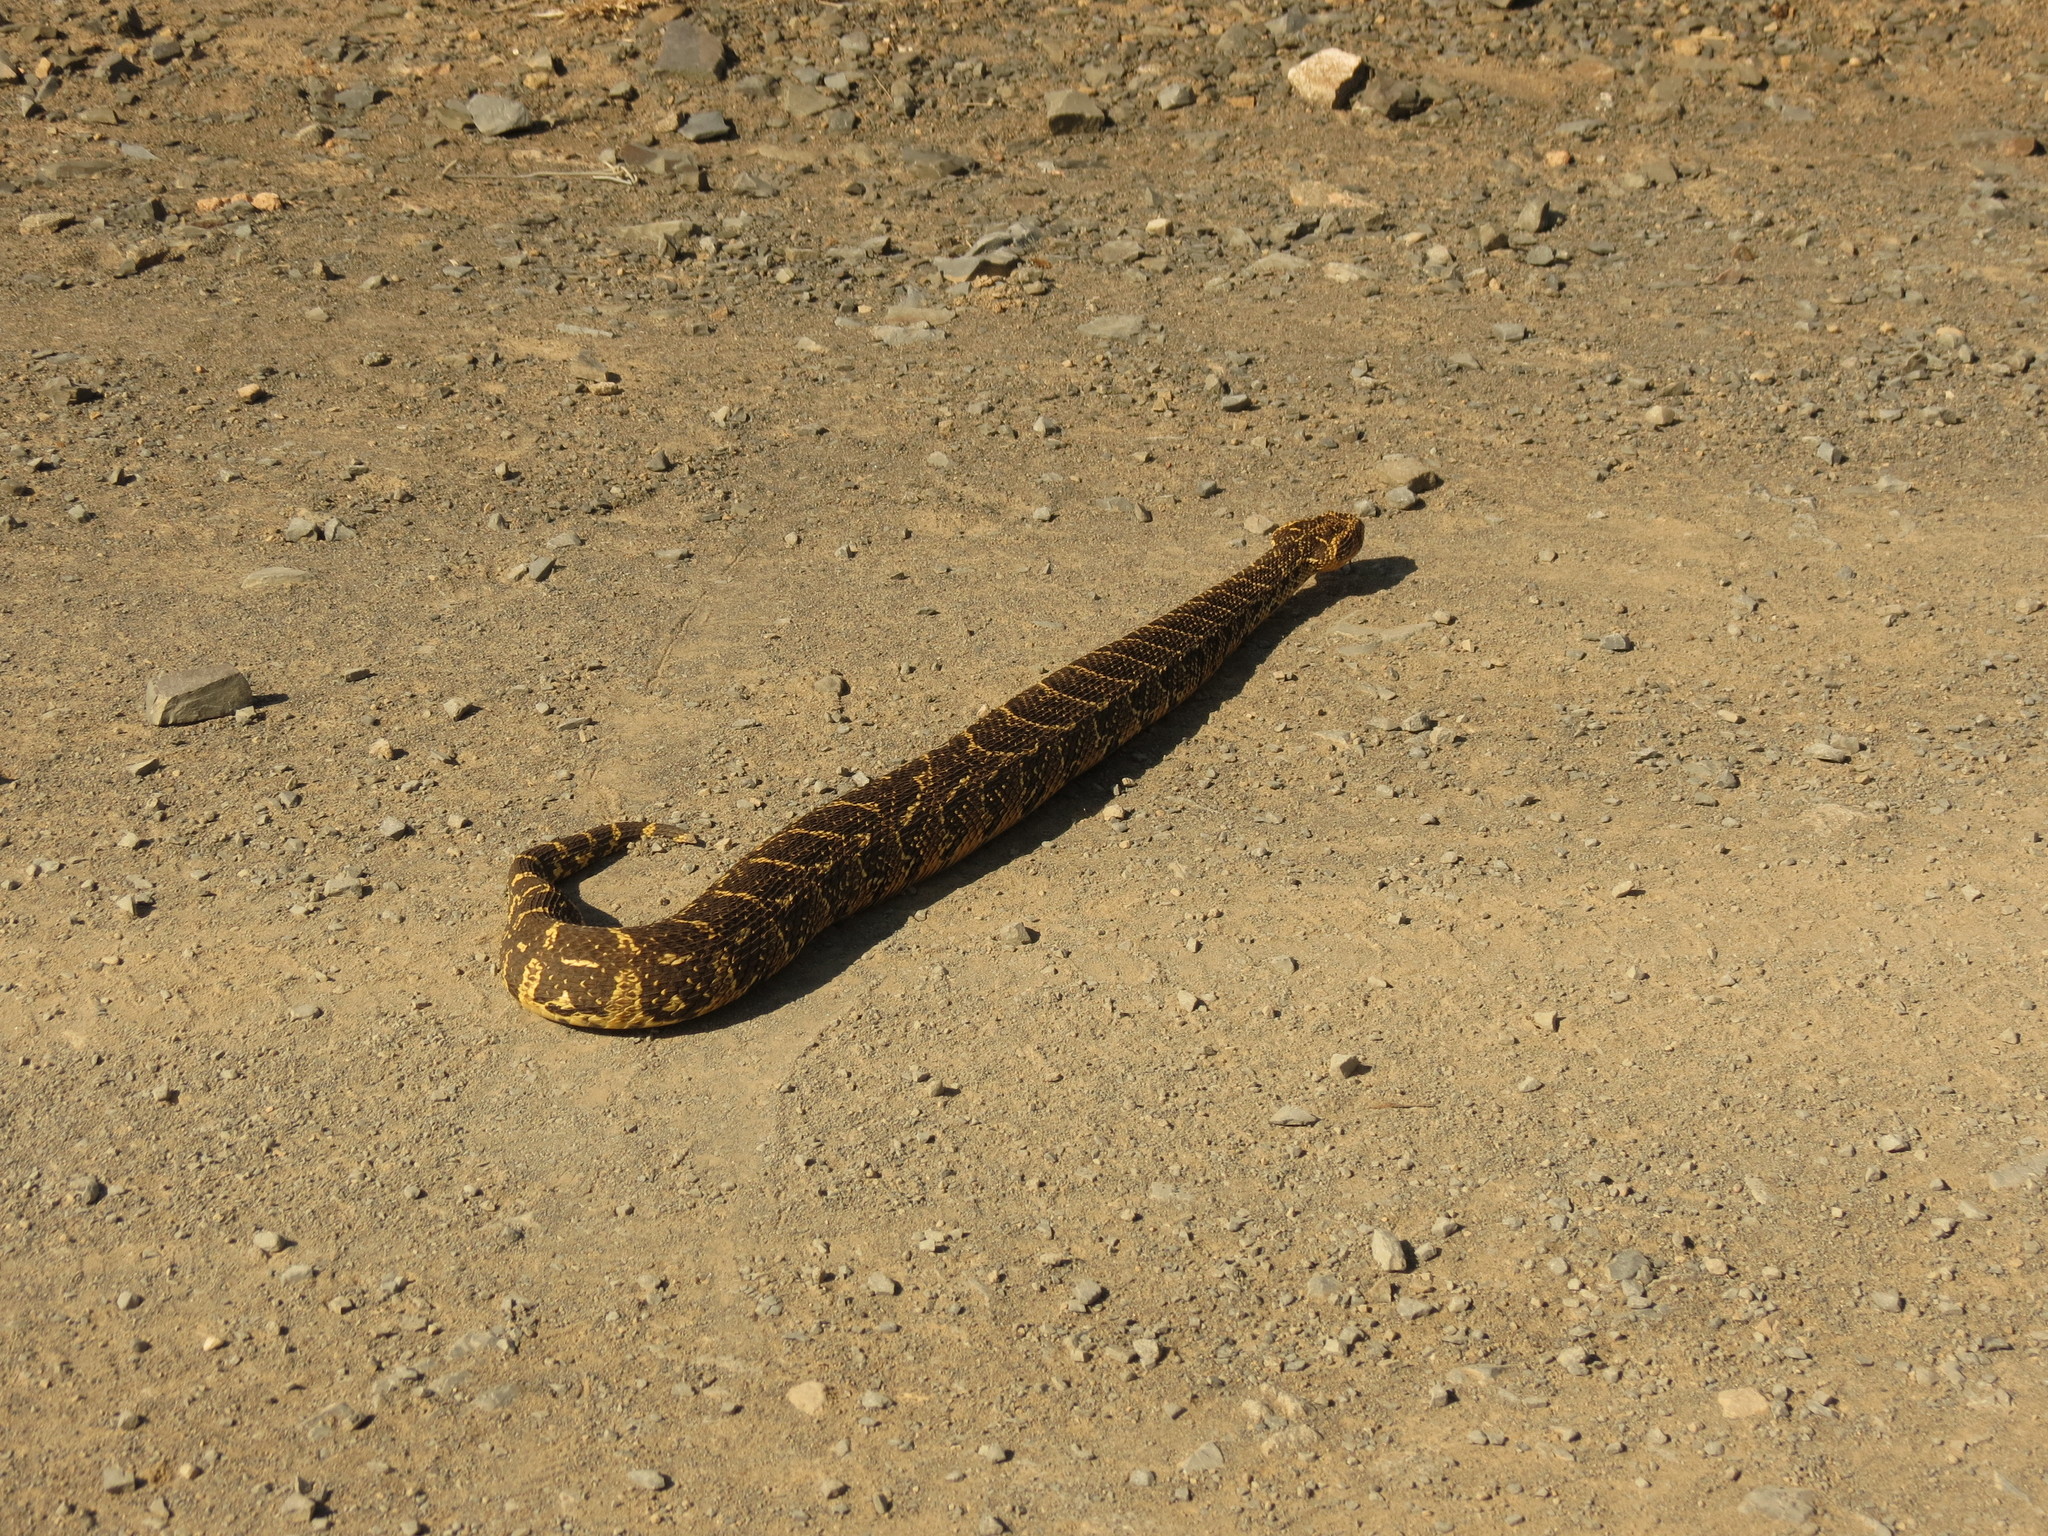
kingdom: Animalia
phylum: Chordata
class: Squamata
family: Viperidae
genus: Bitis
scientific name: Bitis arietans
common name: Puff adder
